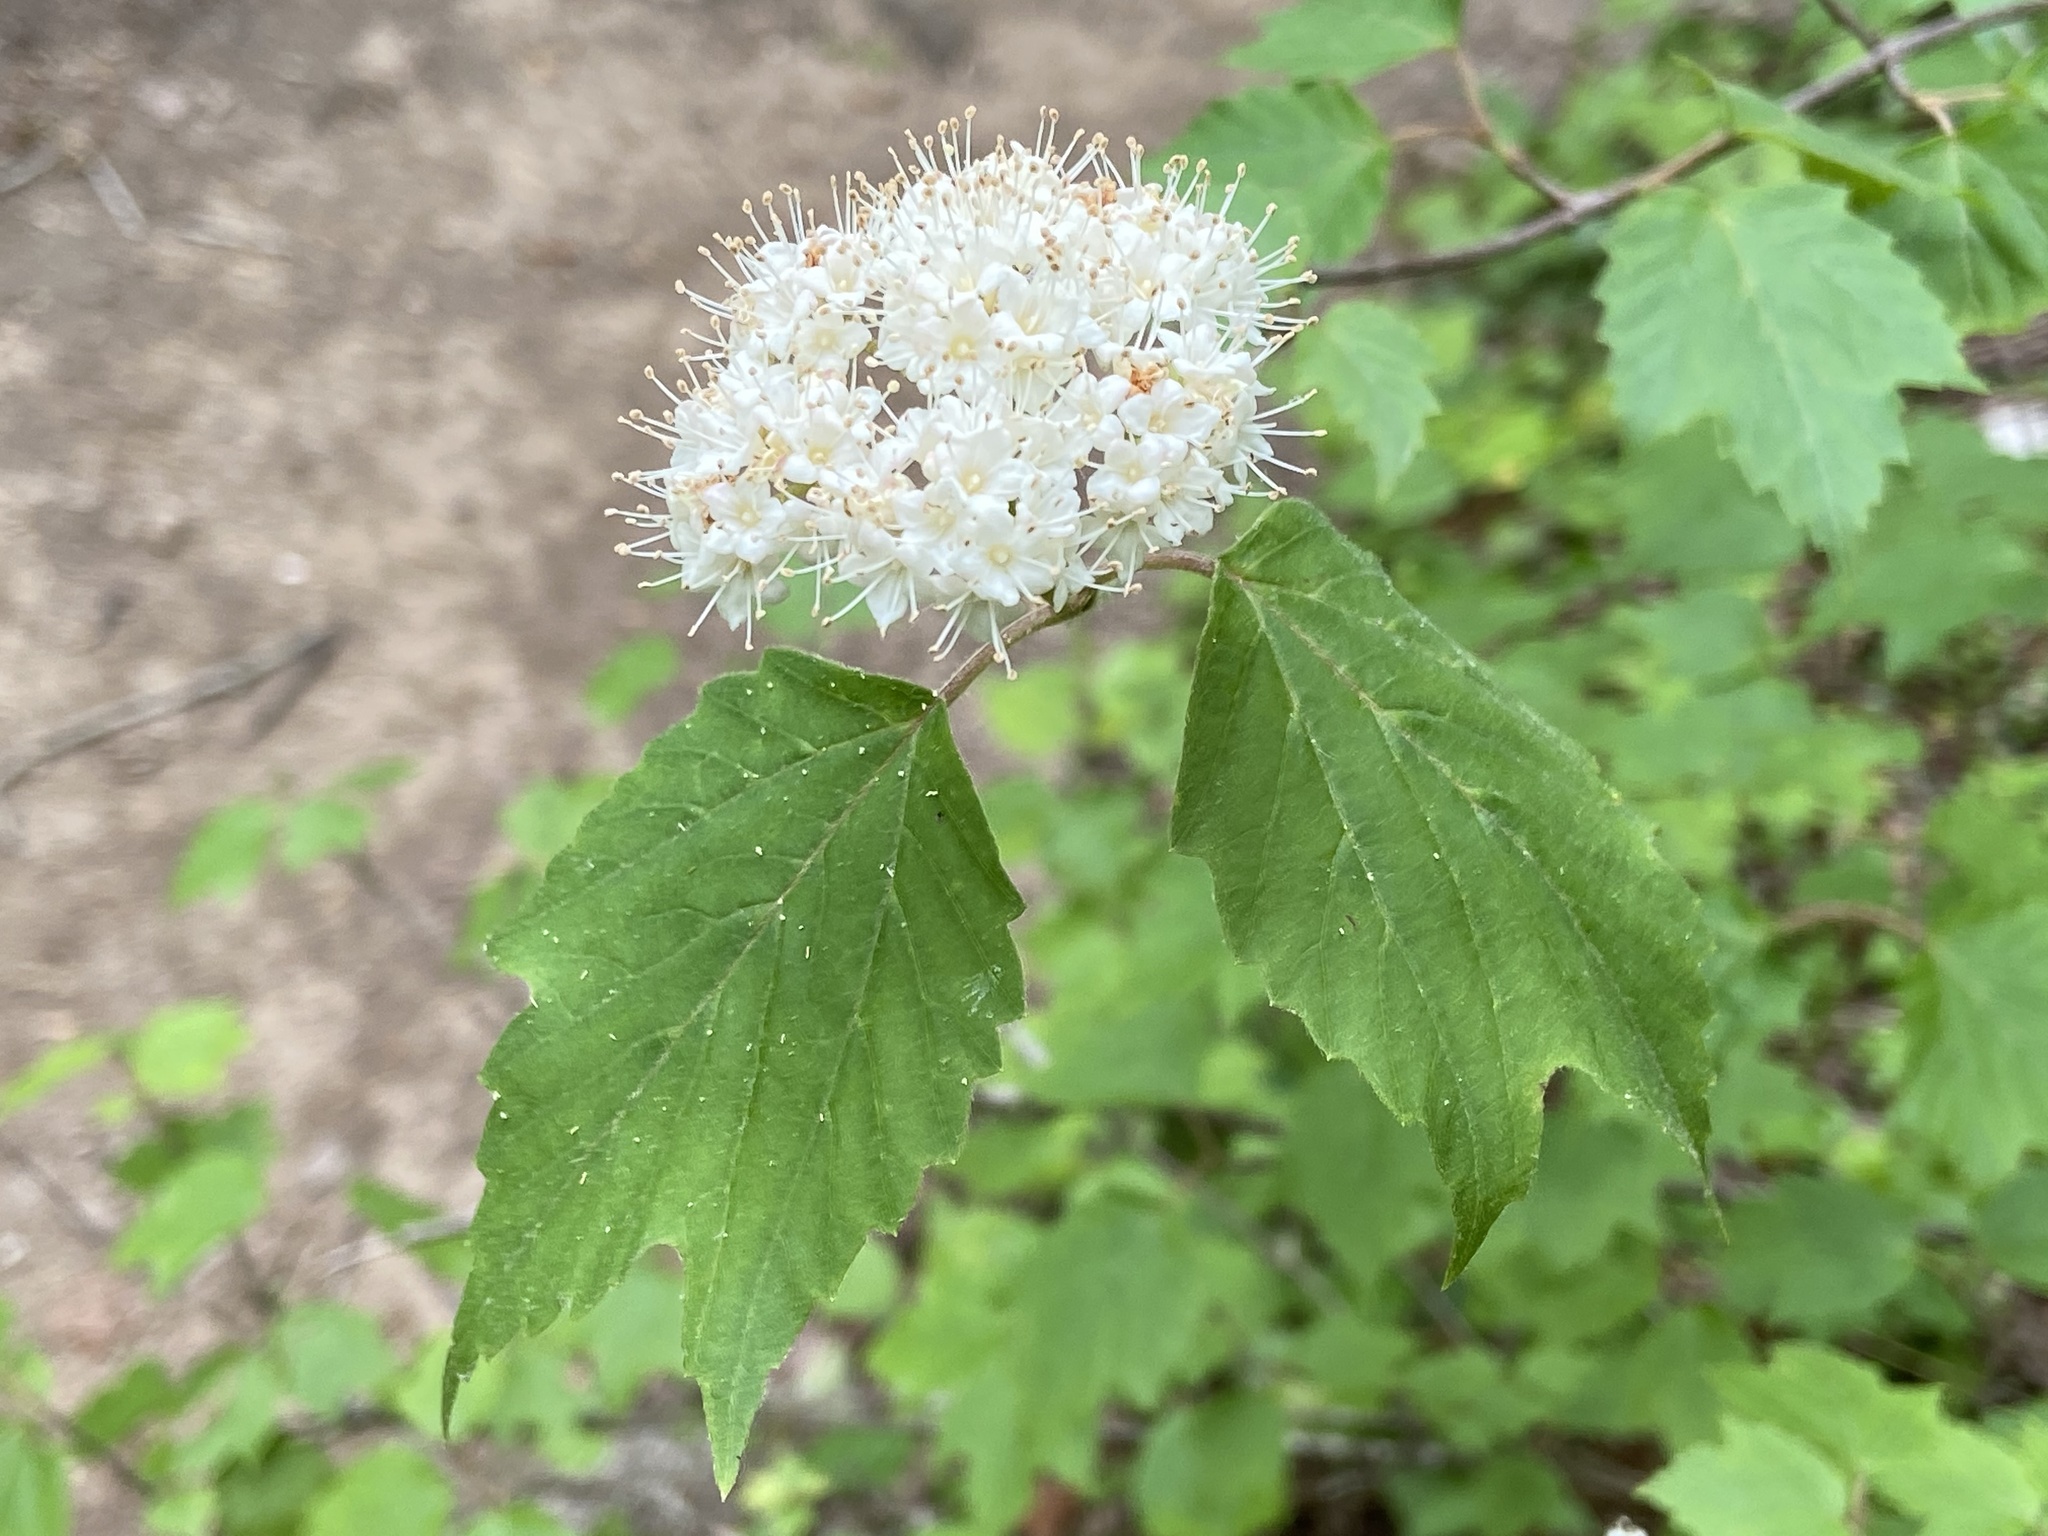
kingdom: Plantae
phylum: Tracheophyta
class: Magnoliopsida
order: Dipsacales
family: Viburnaceae
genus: Viburnum
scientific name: Viburnum acerifolium
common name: Dockmackie
